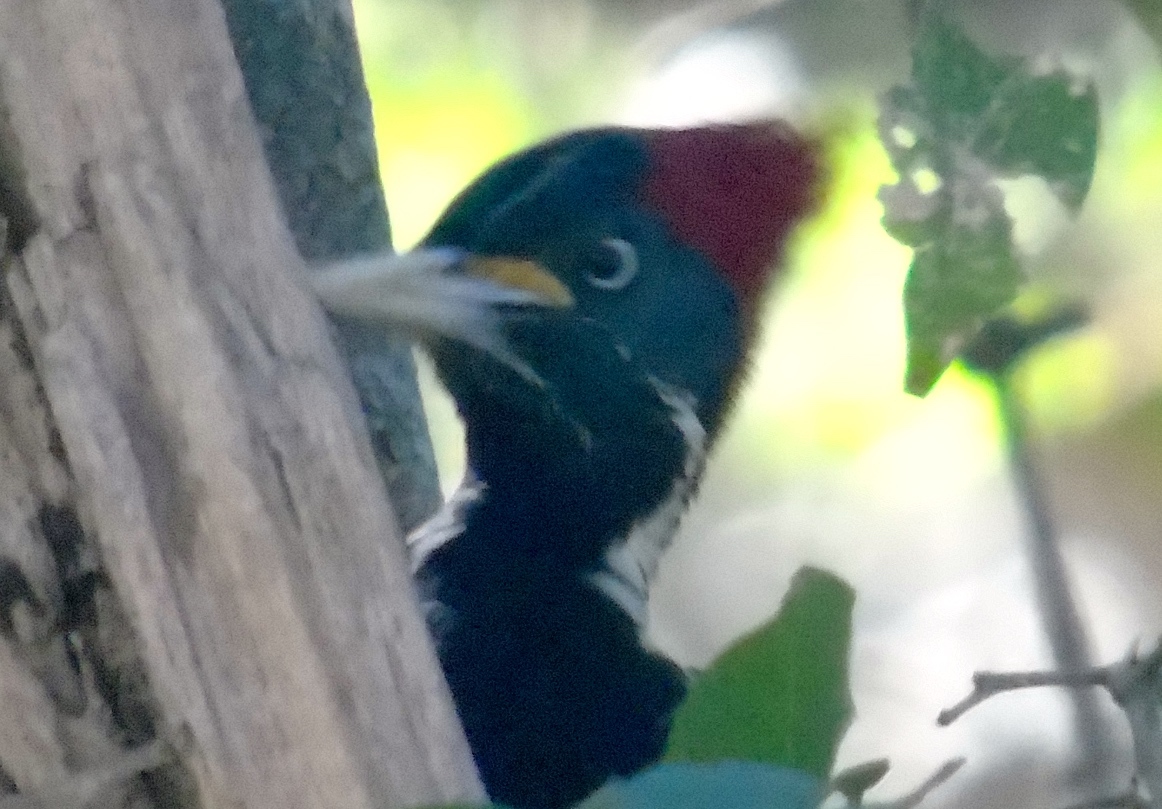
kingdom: Animalia
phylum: Chordata
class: Aves
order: Piciformes
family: Picidae
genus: Dryocopus
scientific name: Dryocopus lineatus
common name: Lineated woodpecker
